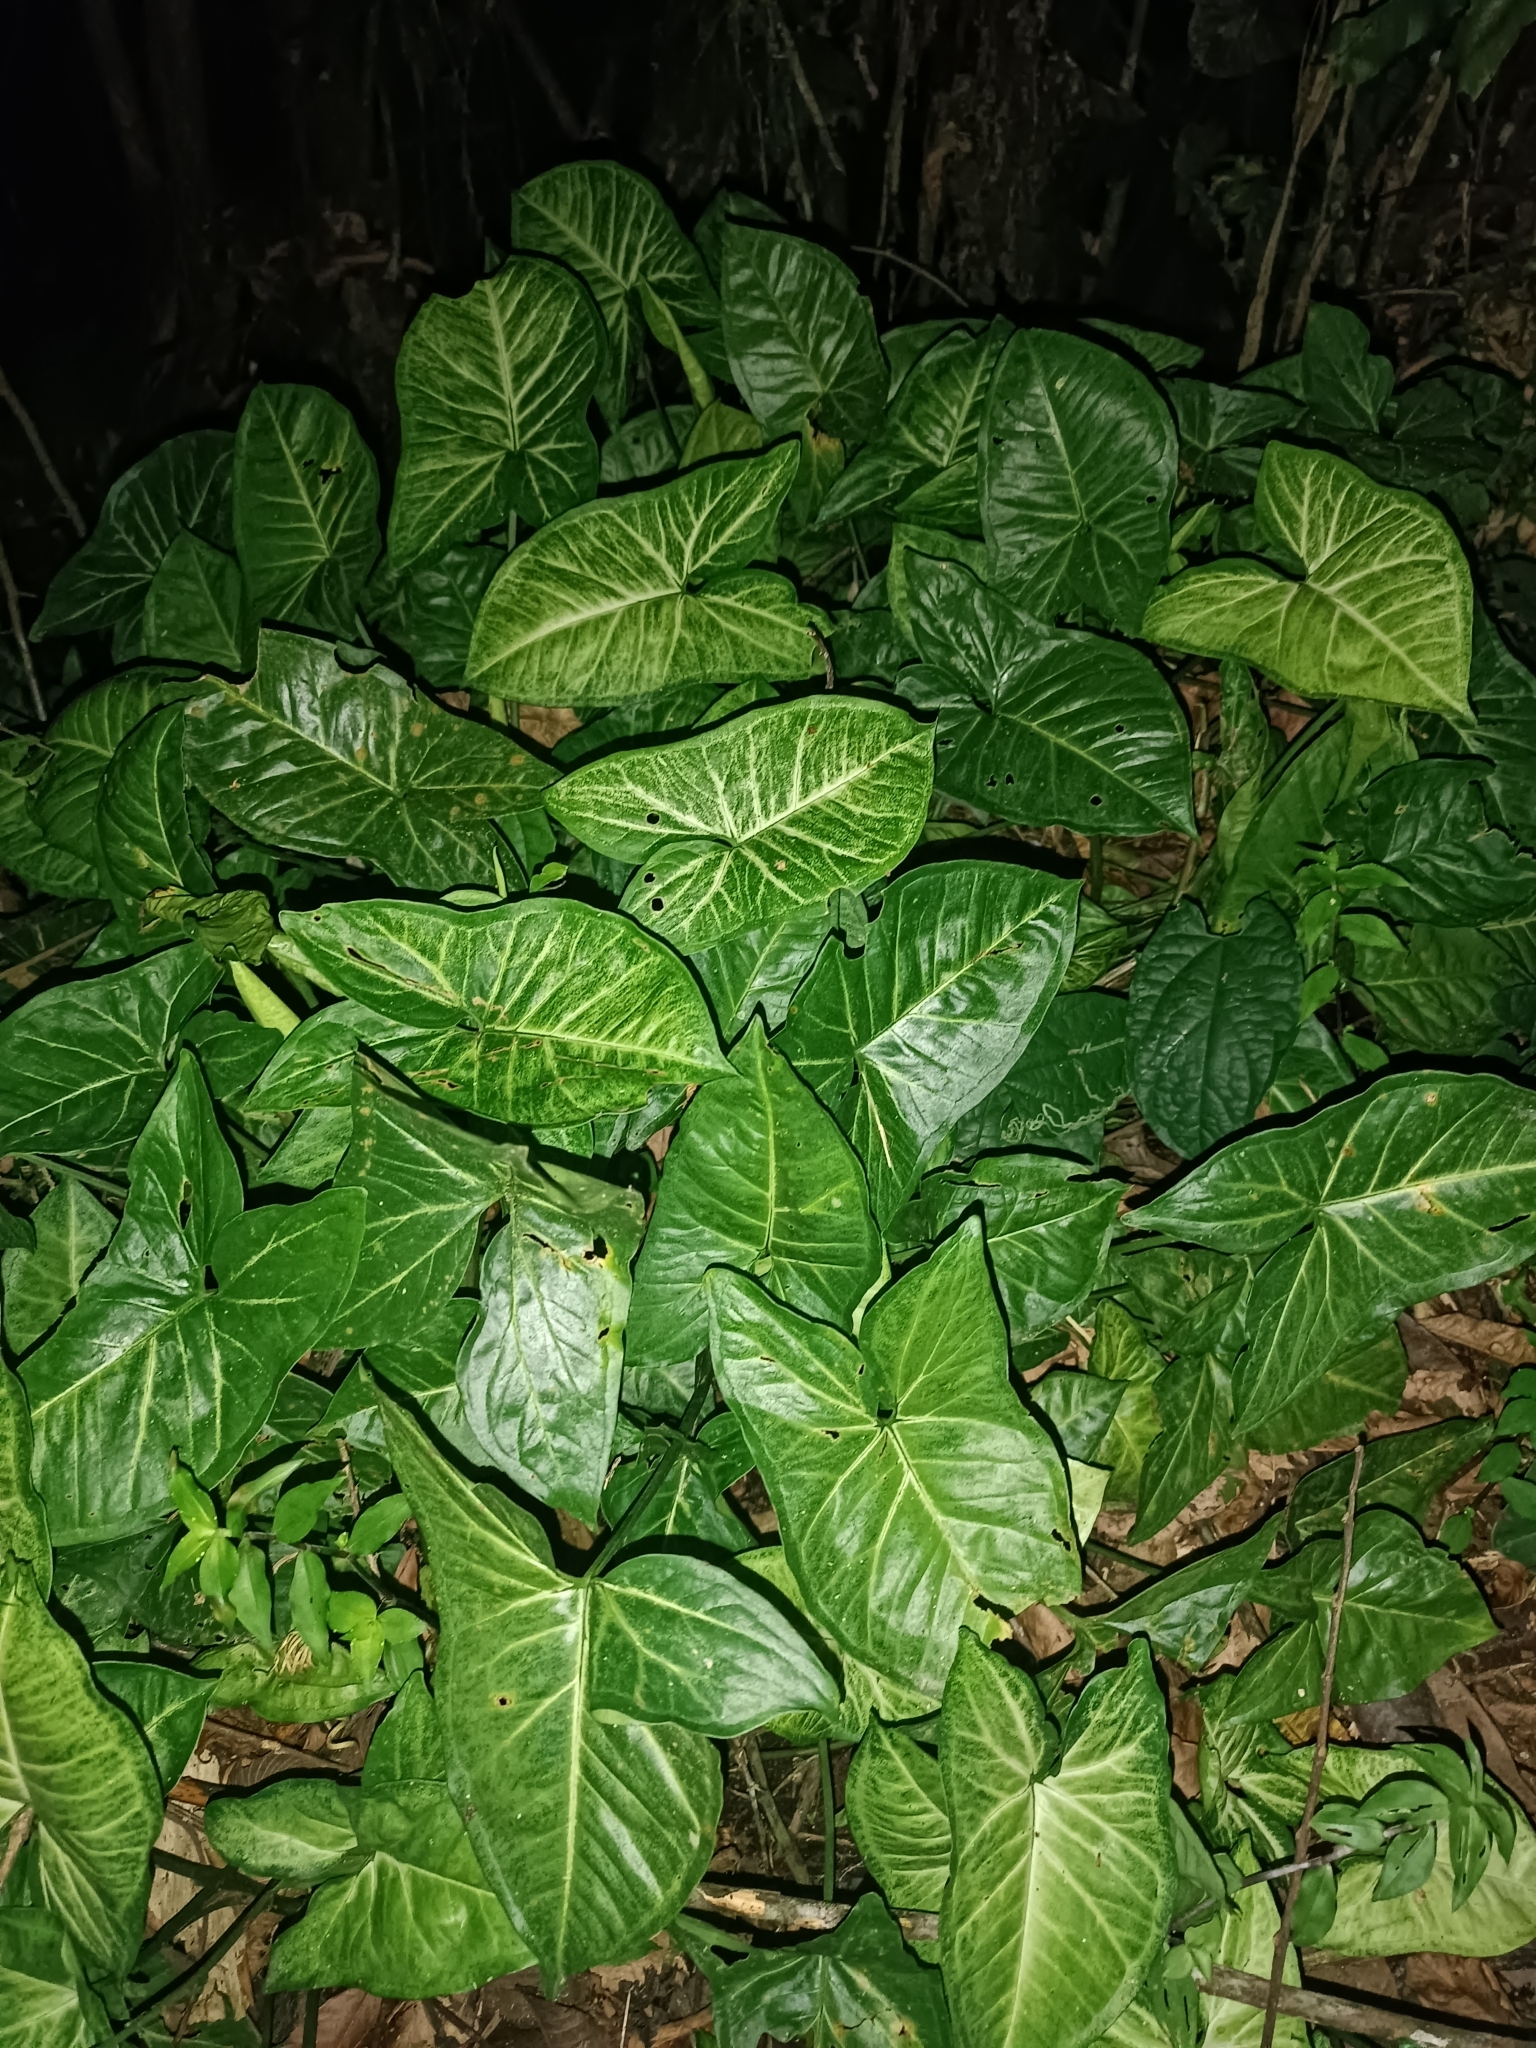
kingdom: Plantae
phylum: Tracheophyta
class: Liliopsida
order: Alismatales
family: Araceae
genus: Syngonium
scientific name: Syngonium podophyllum
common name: American evergreen
